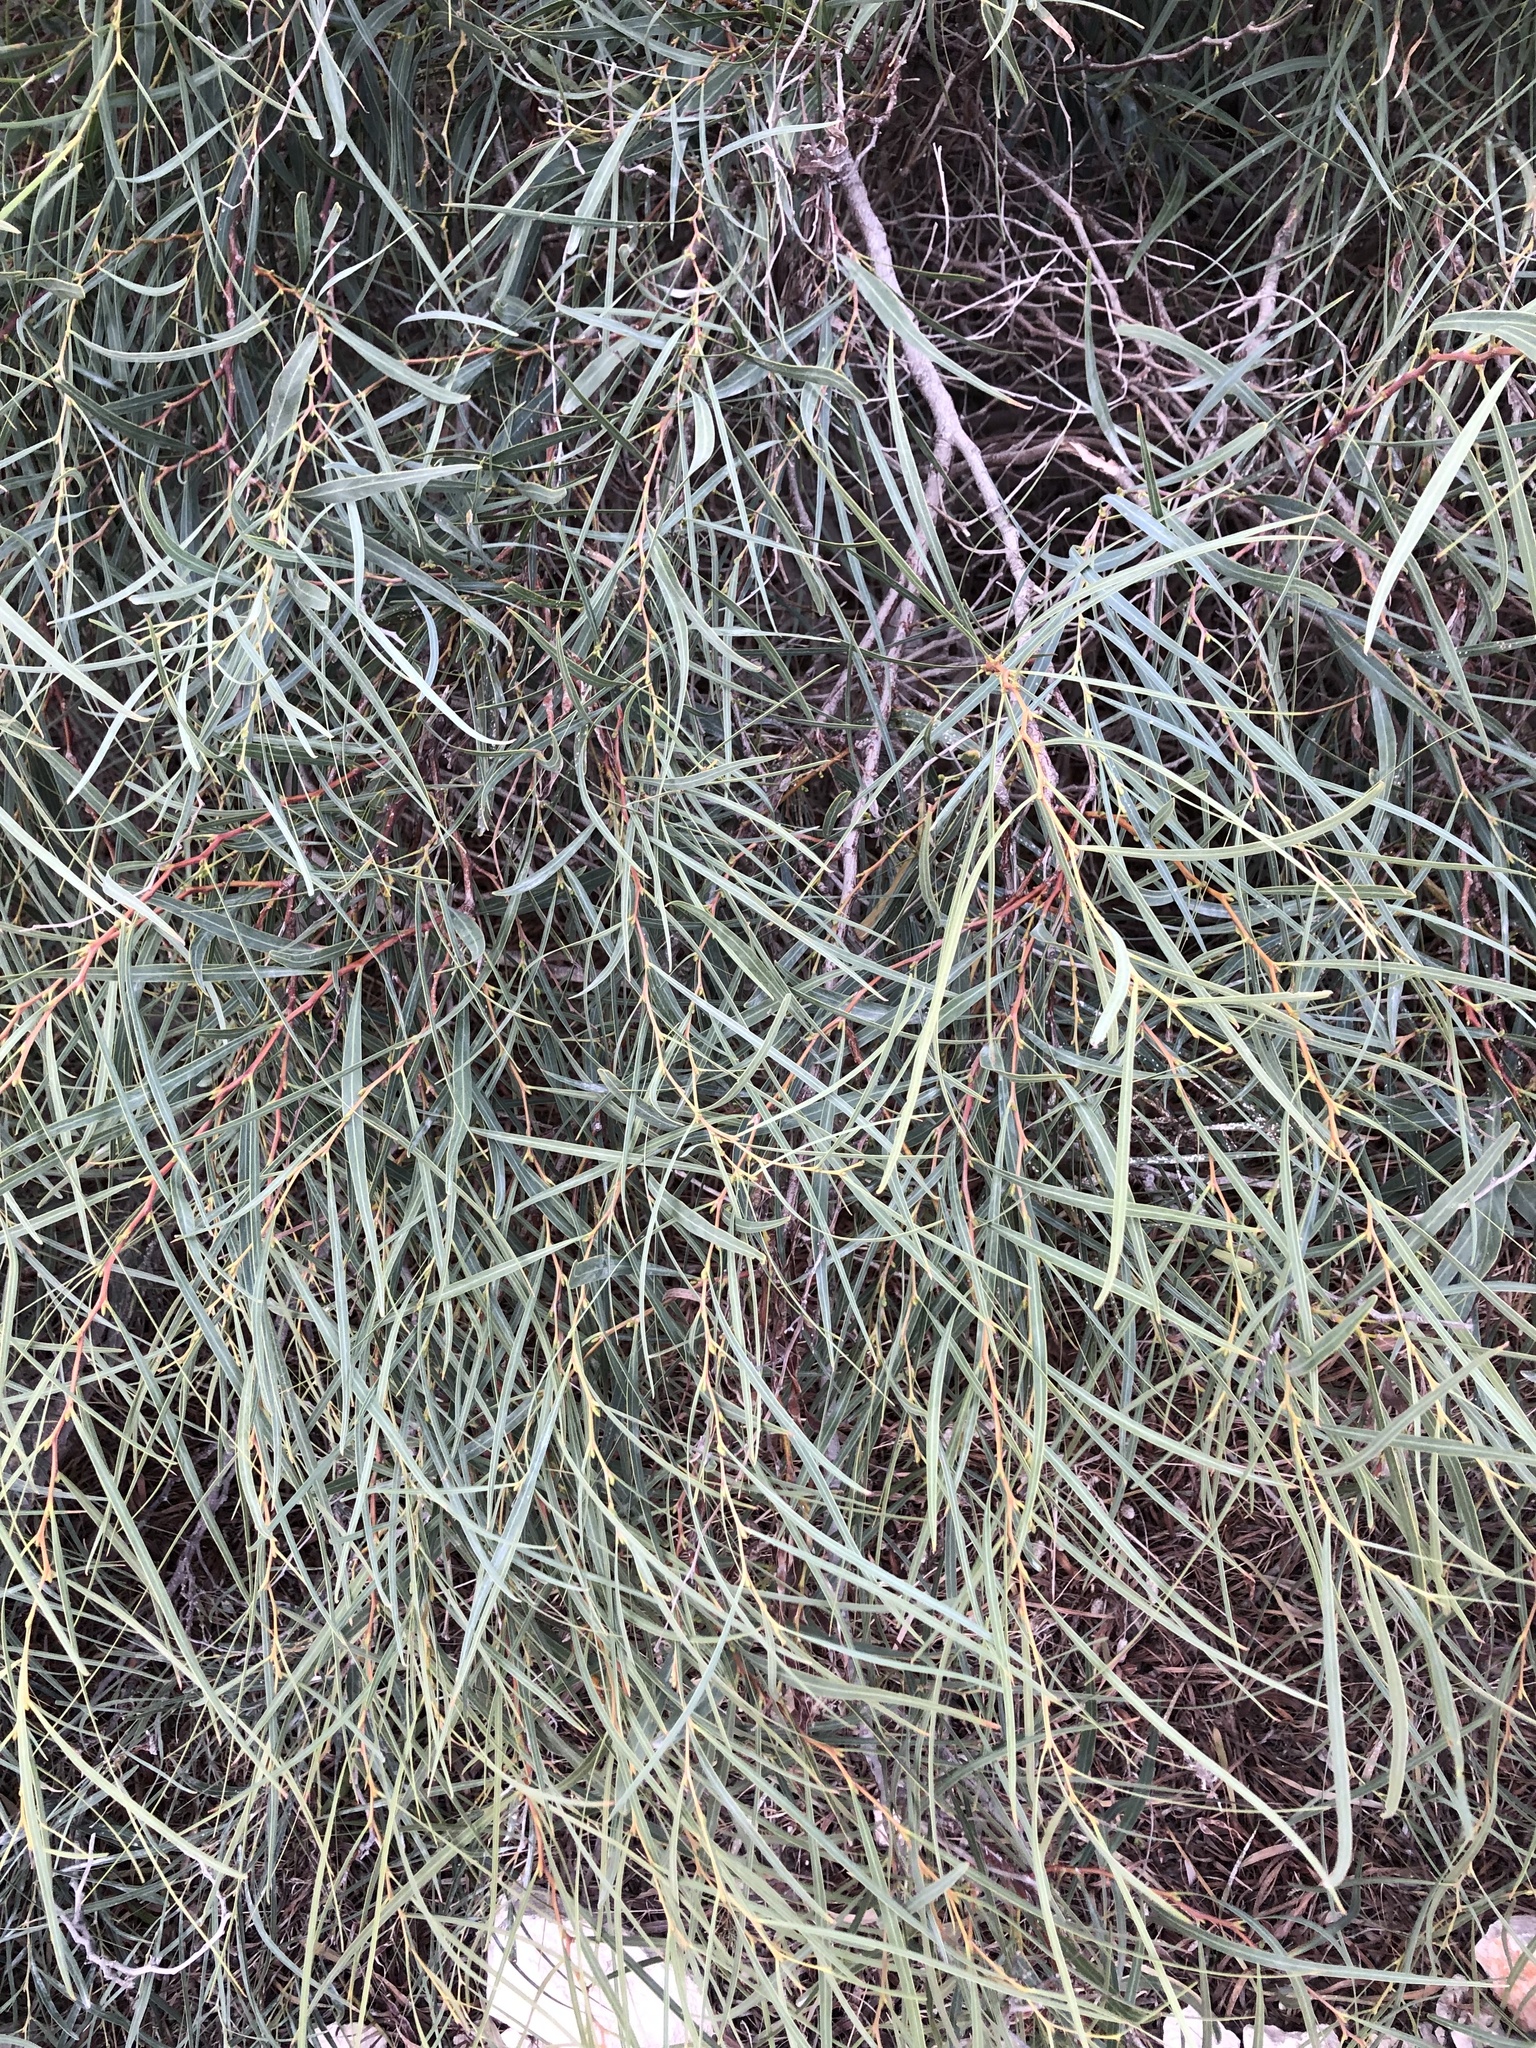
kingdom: Plantae
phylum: Tracheophyta
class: Magnoliopsida
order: Fabales
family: Fabaceae
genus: Acacia
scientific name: Acacia saligna
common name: Orange wattle
